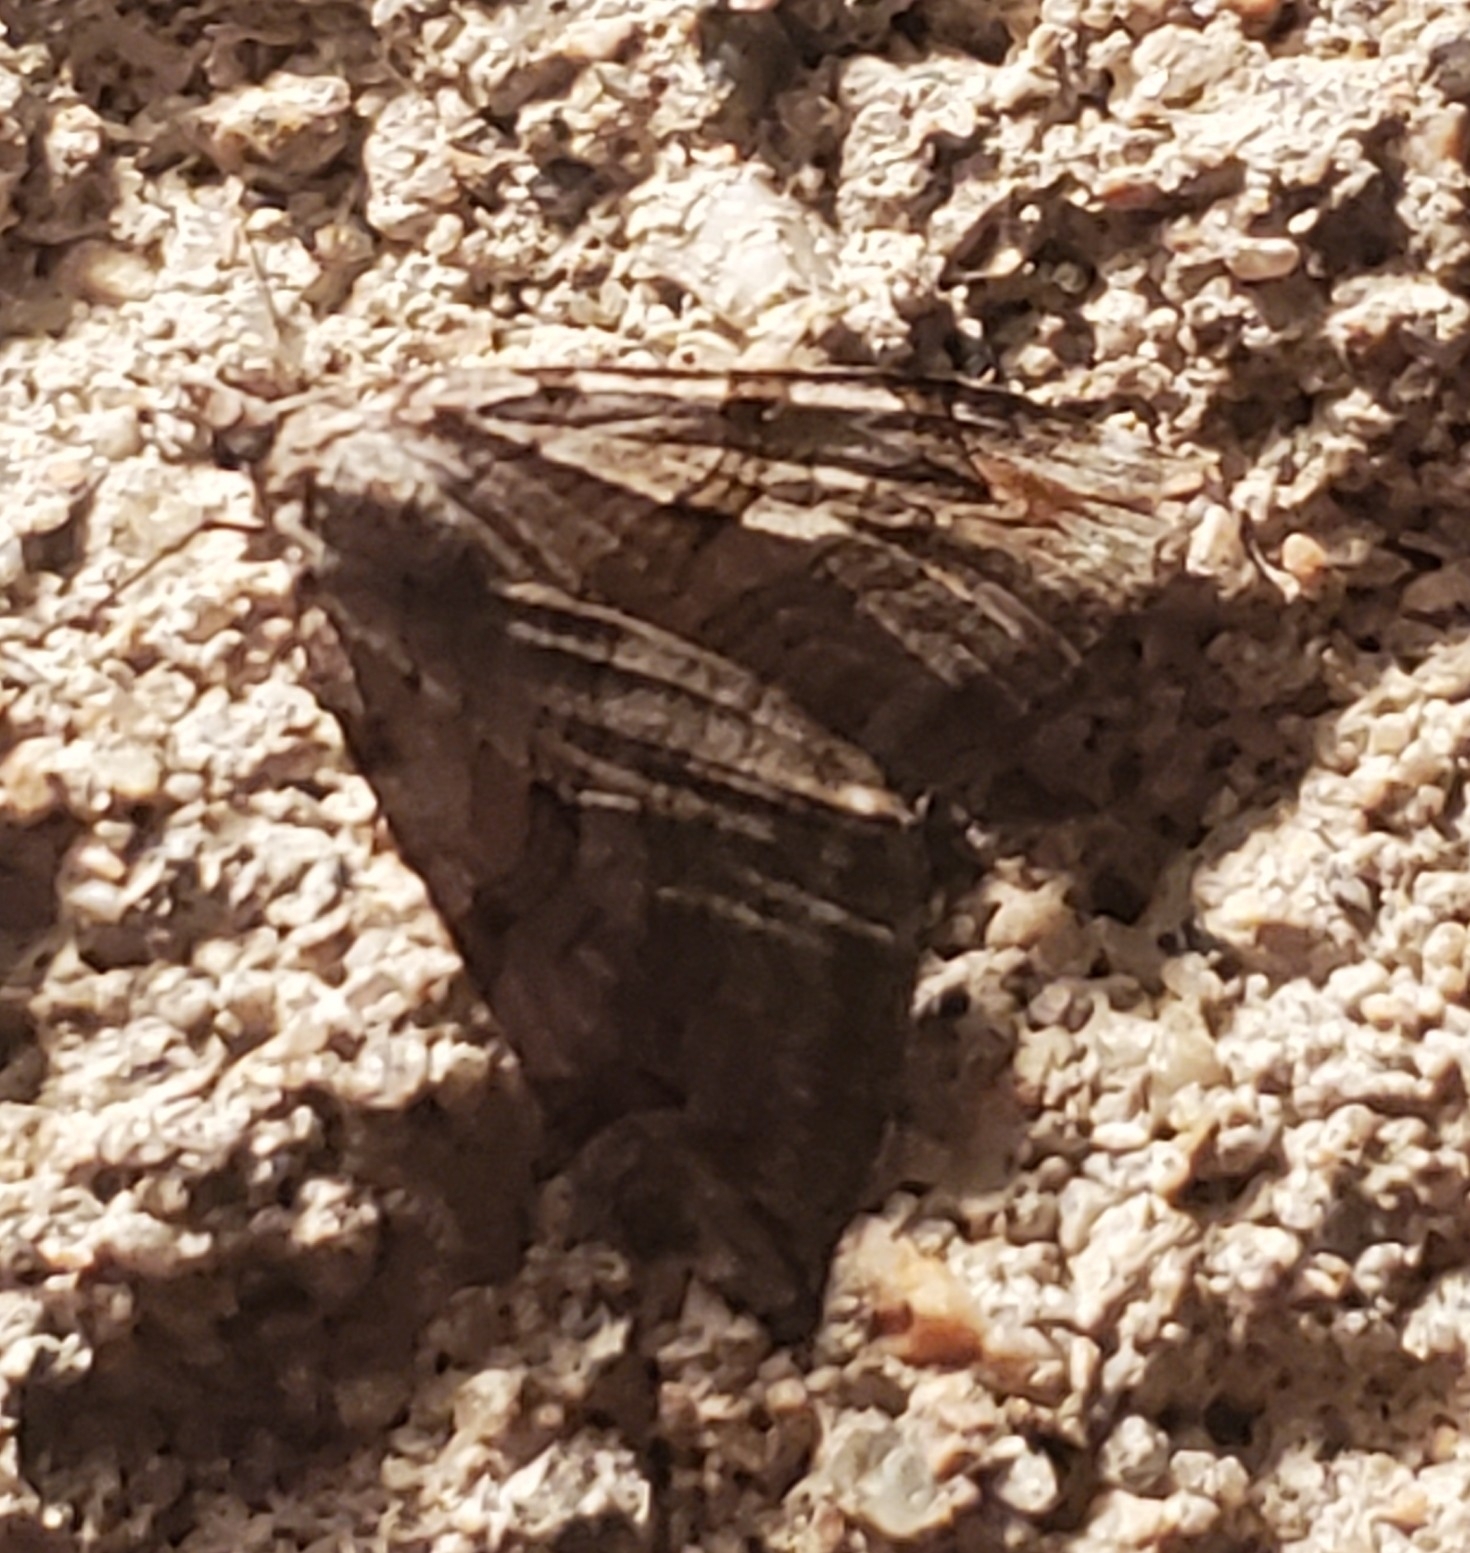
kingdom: Animalia
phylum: Arthropoda
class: Insecta
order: Lepidoptera
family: Geometridae
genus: Aplocera
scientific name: Aplocera plagiata
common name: Treble-bar
